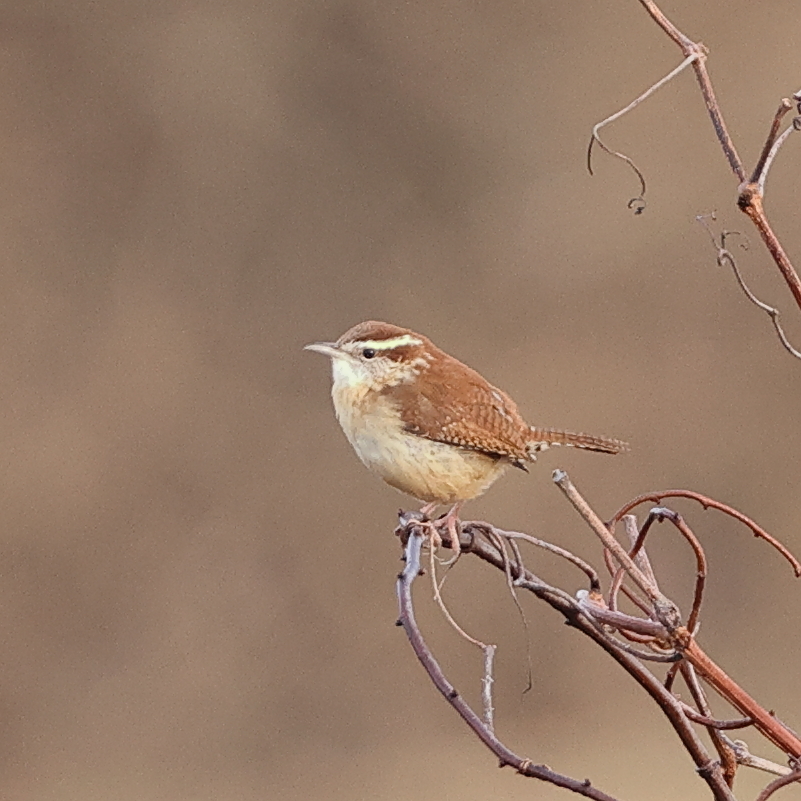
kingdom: Animalia
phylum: Chordata
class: Aves
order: Passeriformes
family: Troglodytidae
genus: Thryothorus
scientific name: Thryothorus ludovicianus
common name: Carolina wren
